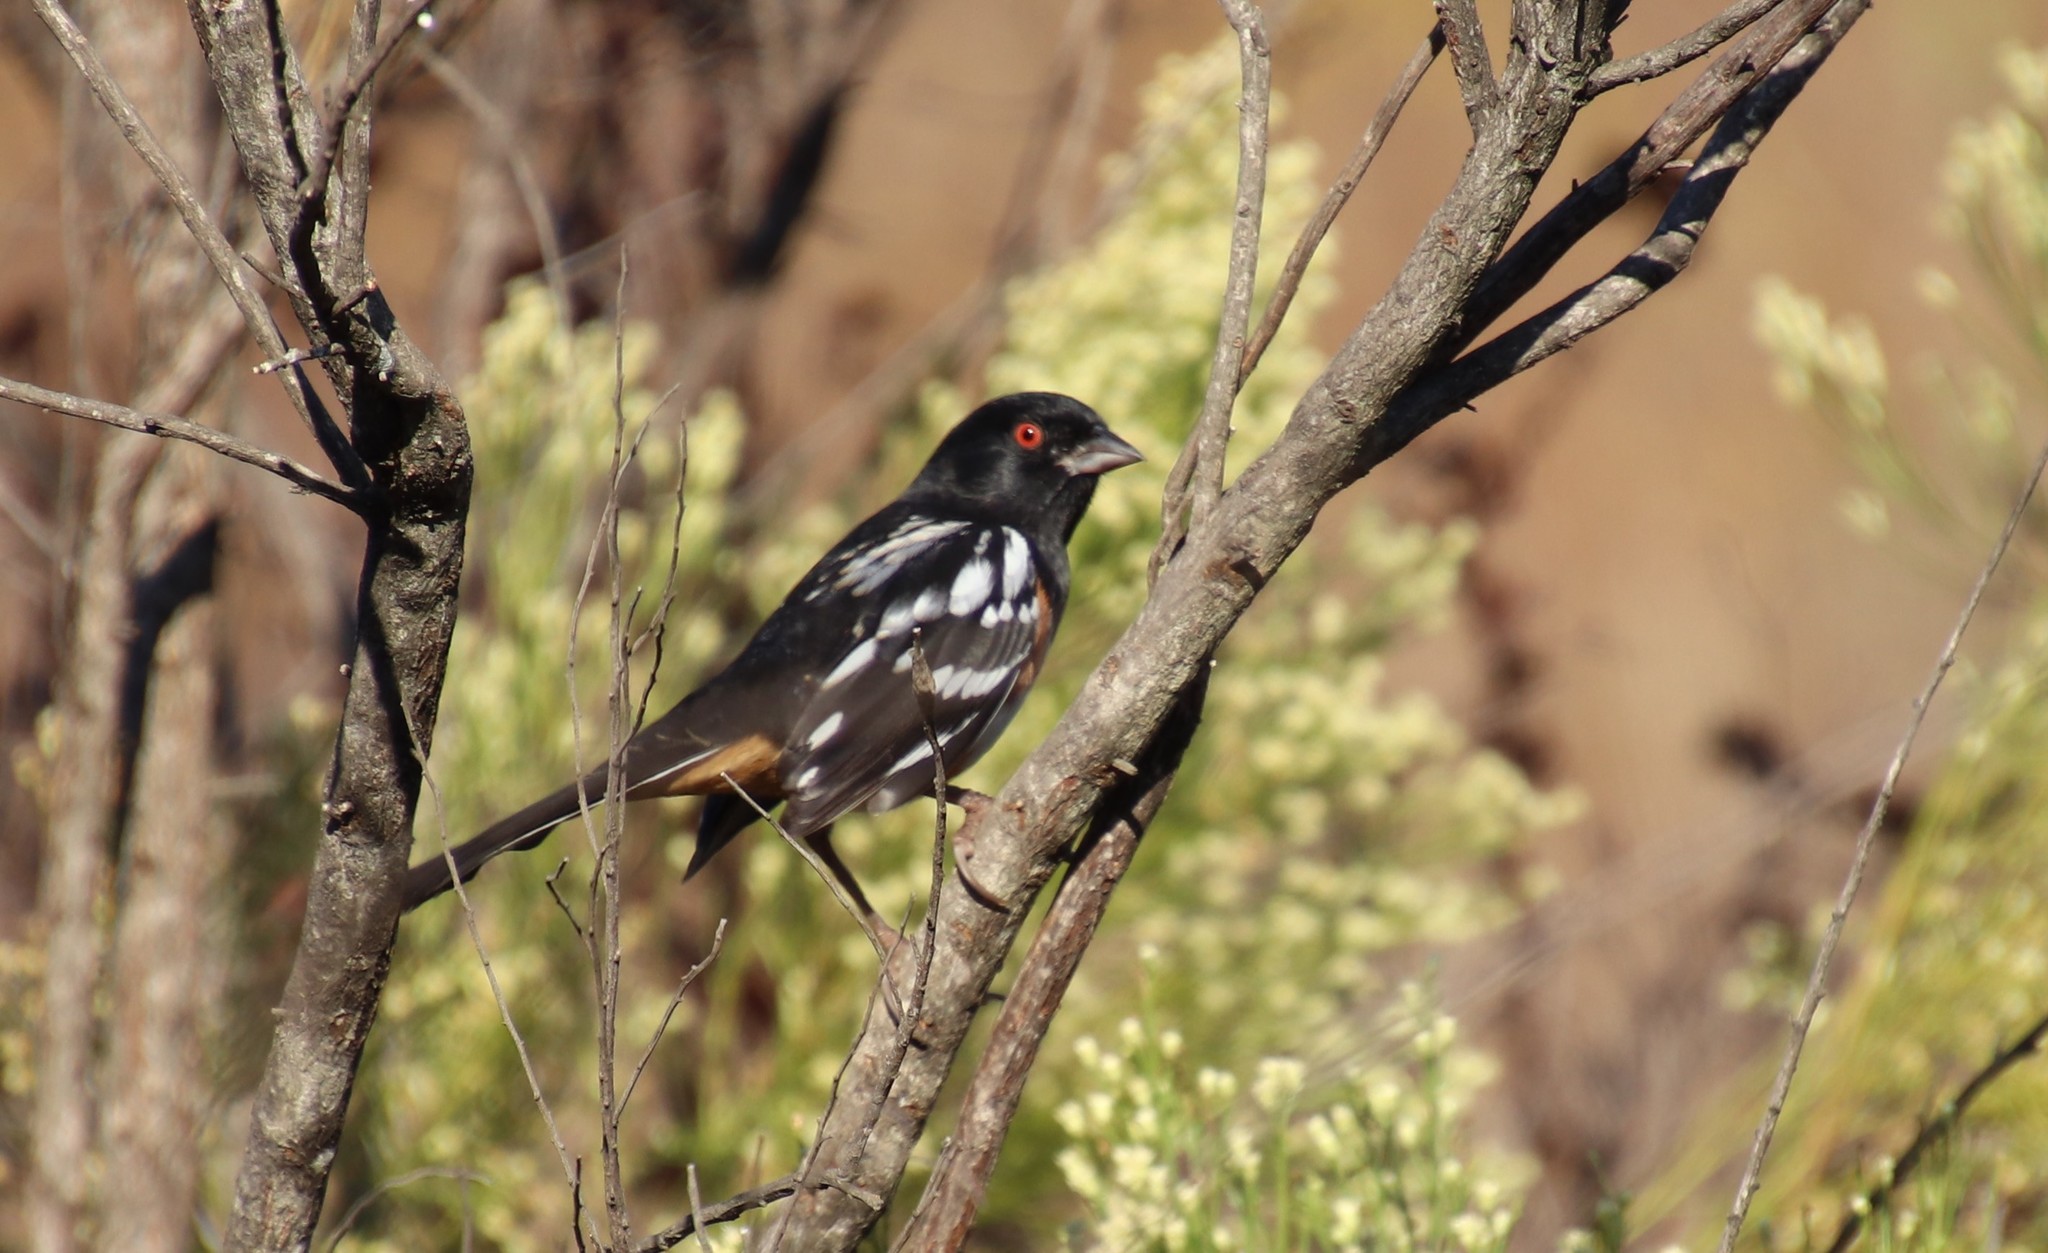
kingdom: Animalia
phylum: Chordata
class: Aves
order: Passeriformes
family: Passerellidae
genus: Pipilo
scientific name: Pipilo maculatus
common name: Spotted towhee
